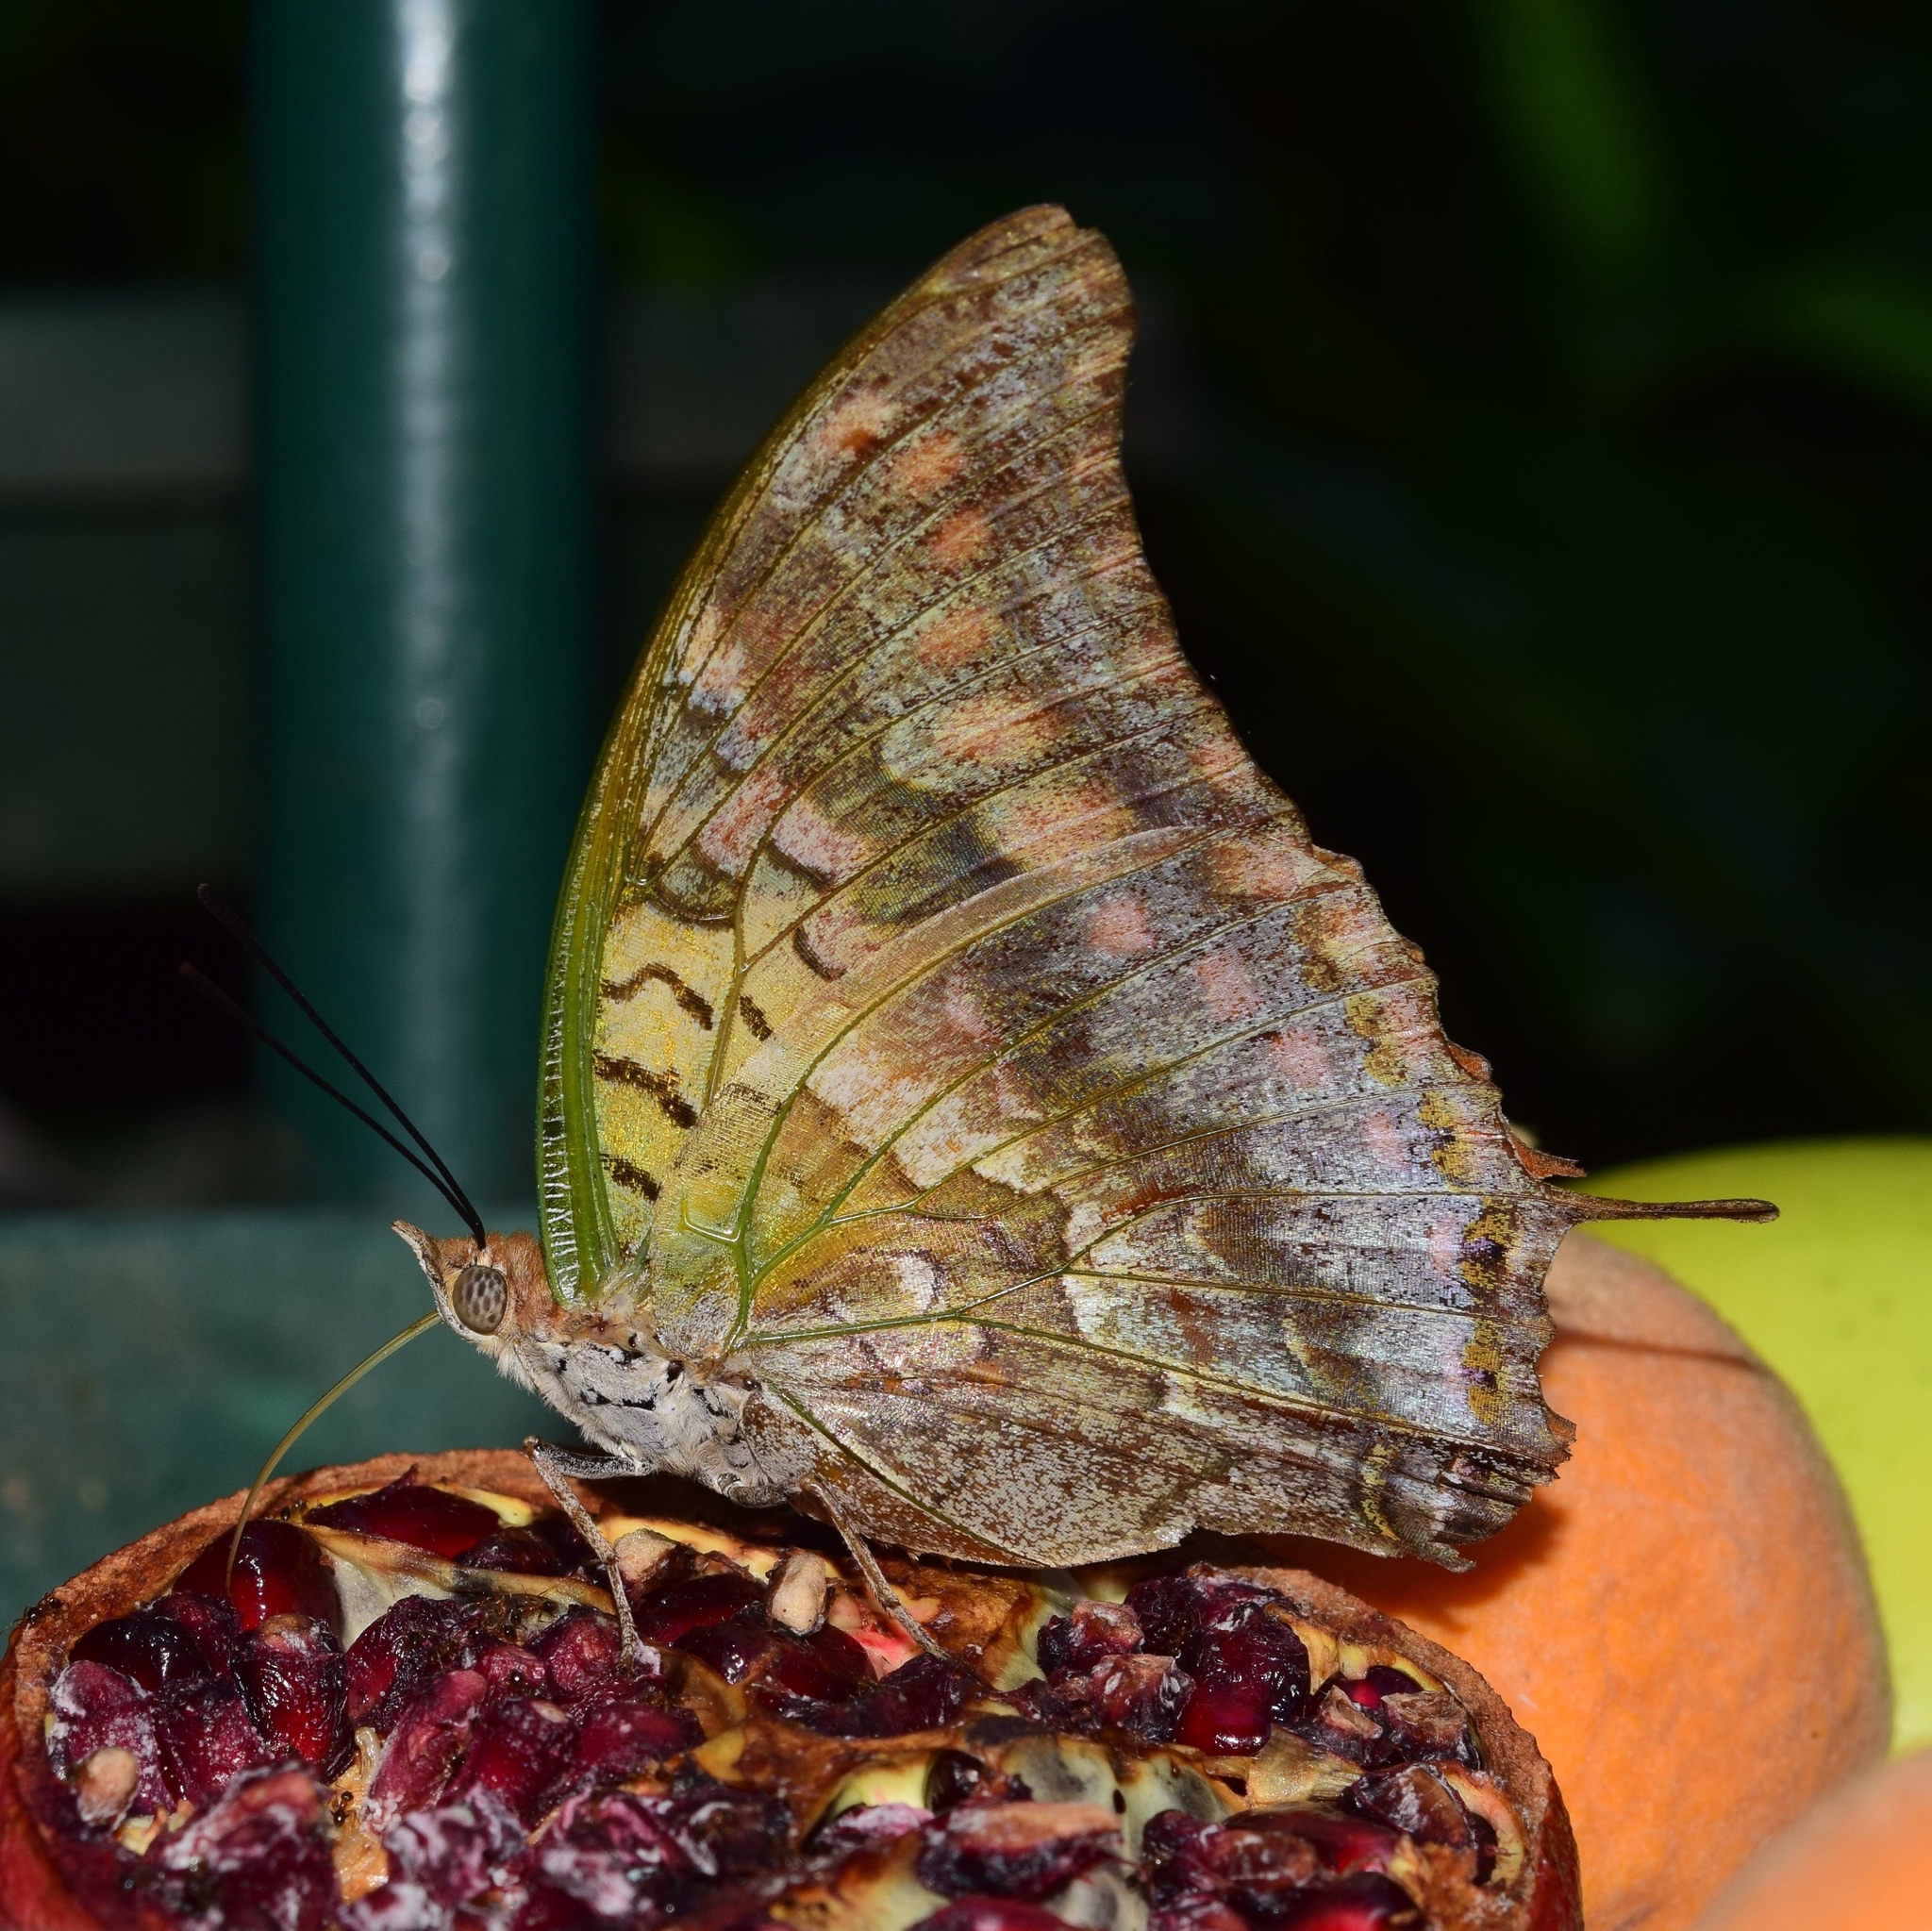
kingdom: Animalia
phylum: Arthropoda
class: Insecta
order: Lepidoptera
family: Nymphalidae
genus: Charaxes
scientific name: Charaxes candiope
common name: Green-veined charaxes
